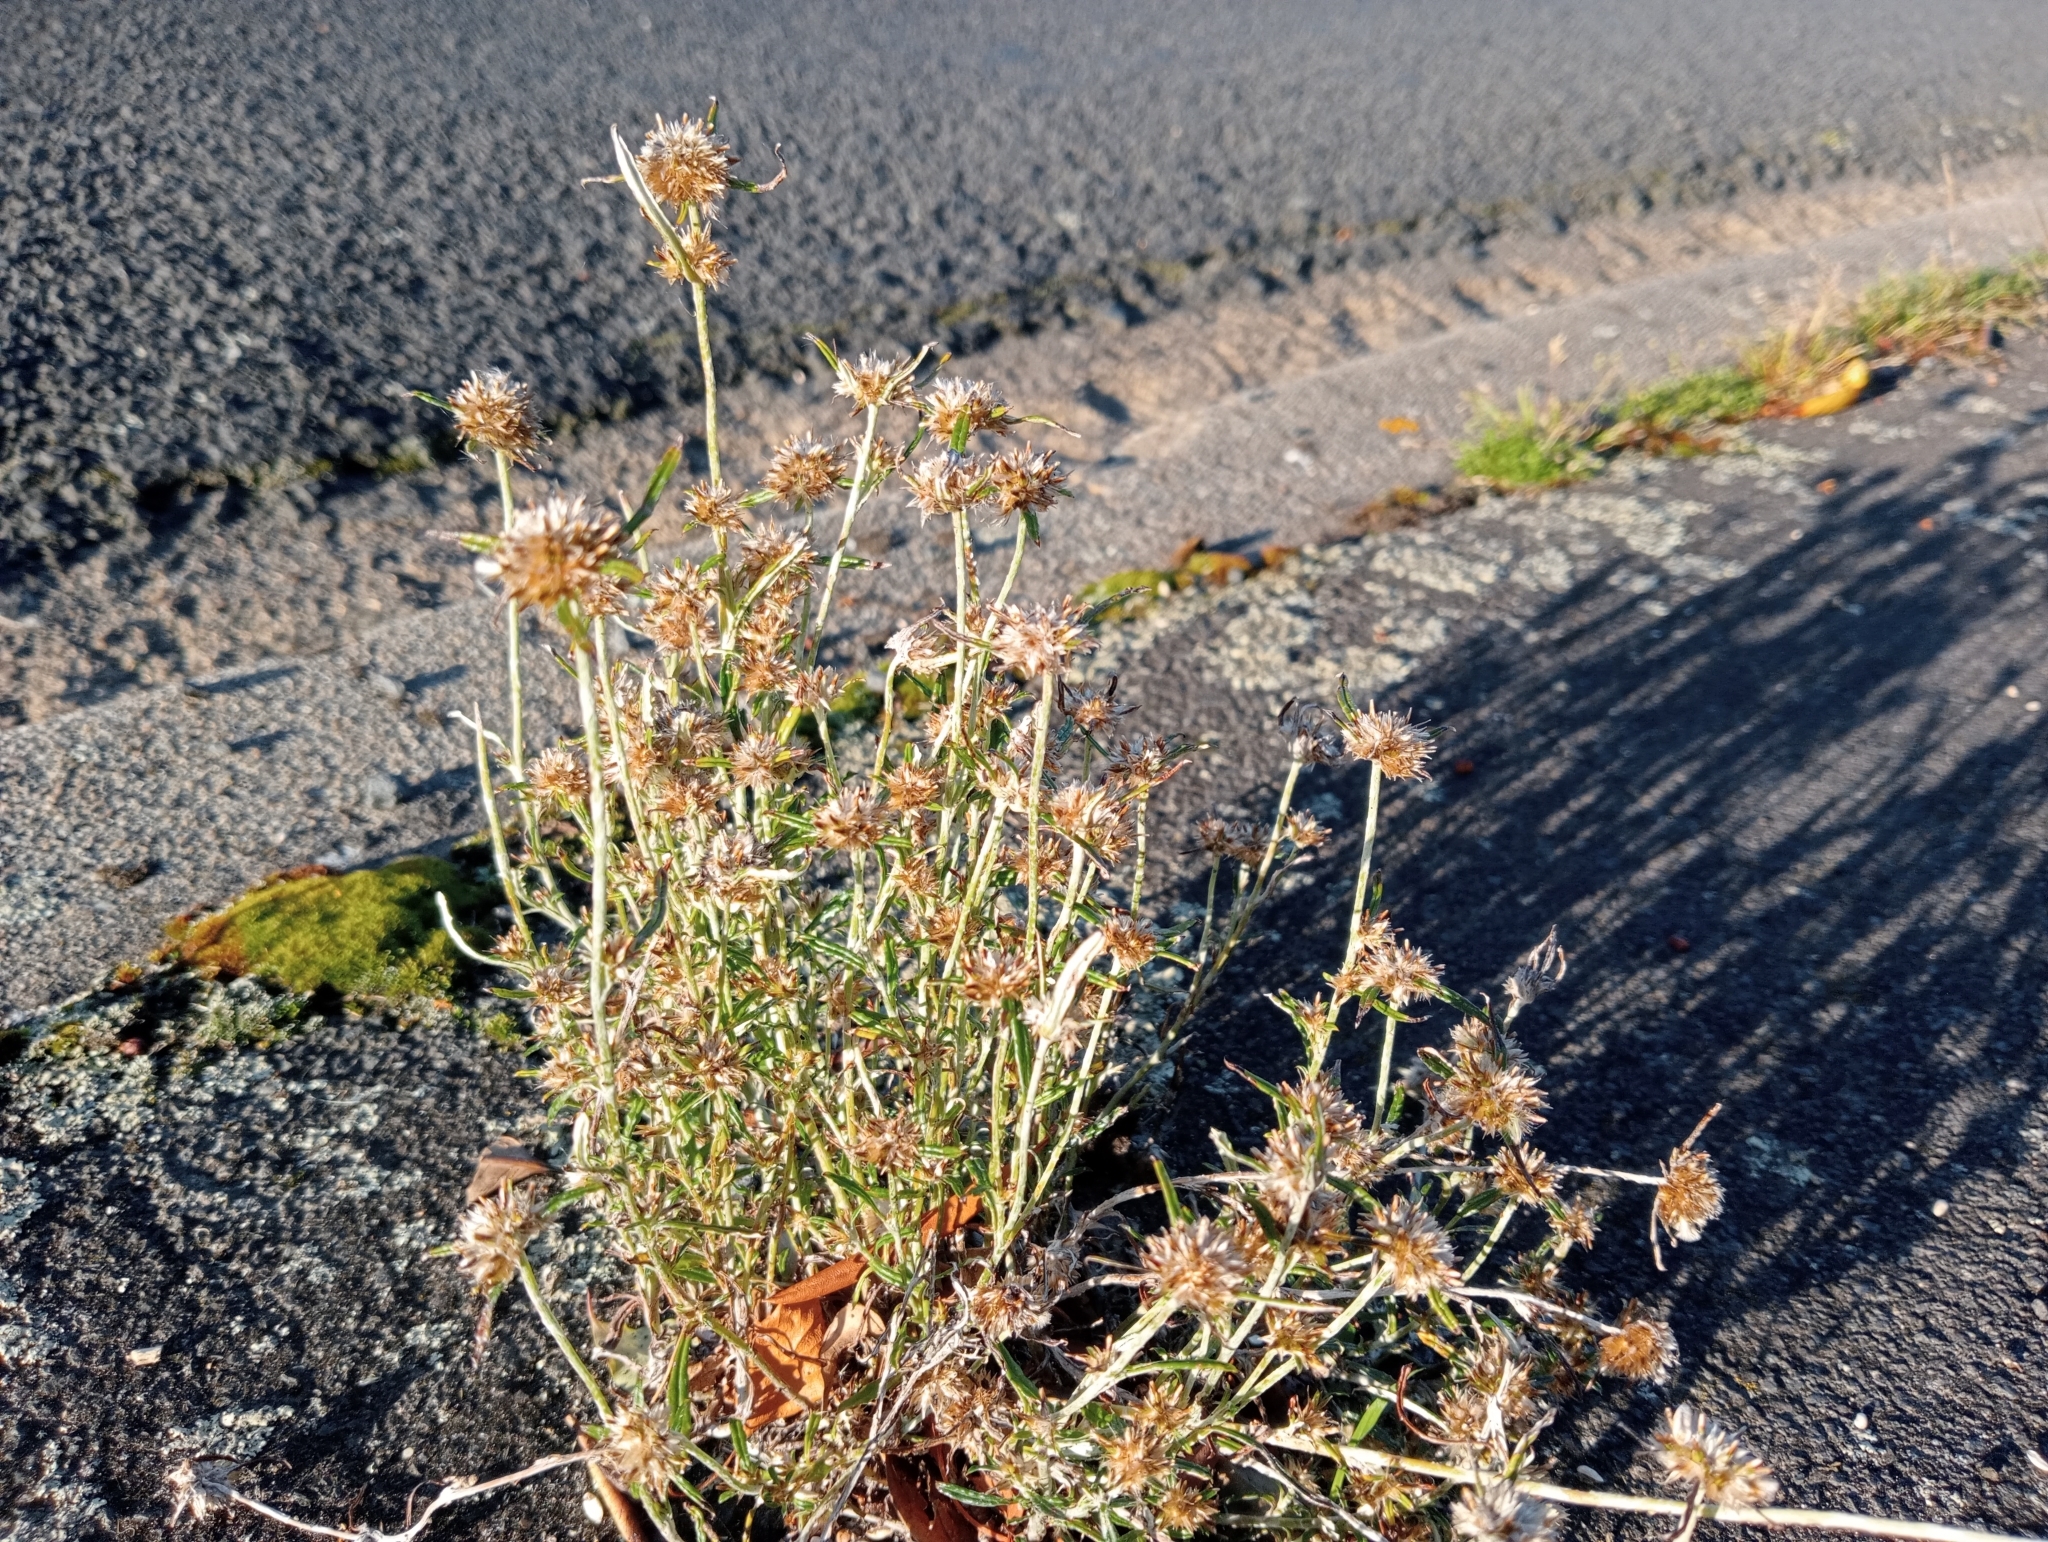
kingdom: Plantae
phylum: Tracheophyta
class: Magnoliopsida
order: Asterales
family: Asteraceae
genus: Euchiton
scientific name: Euchiton sphaericus
